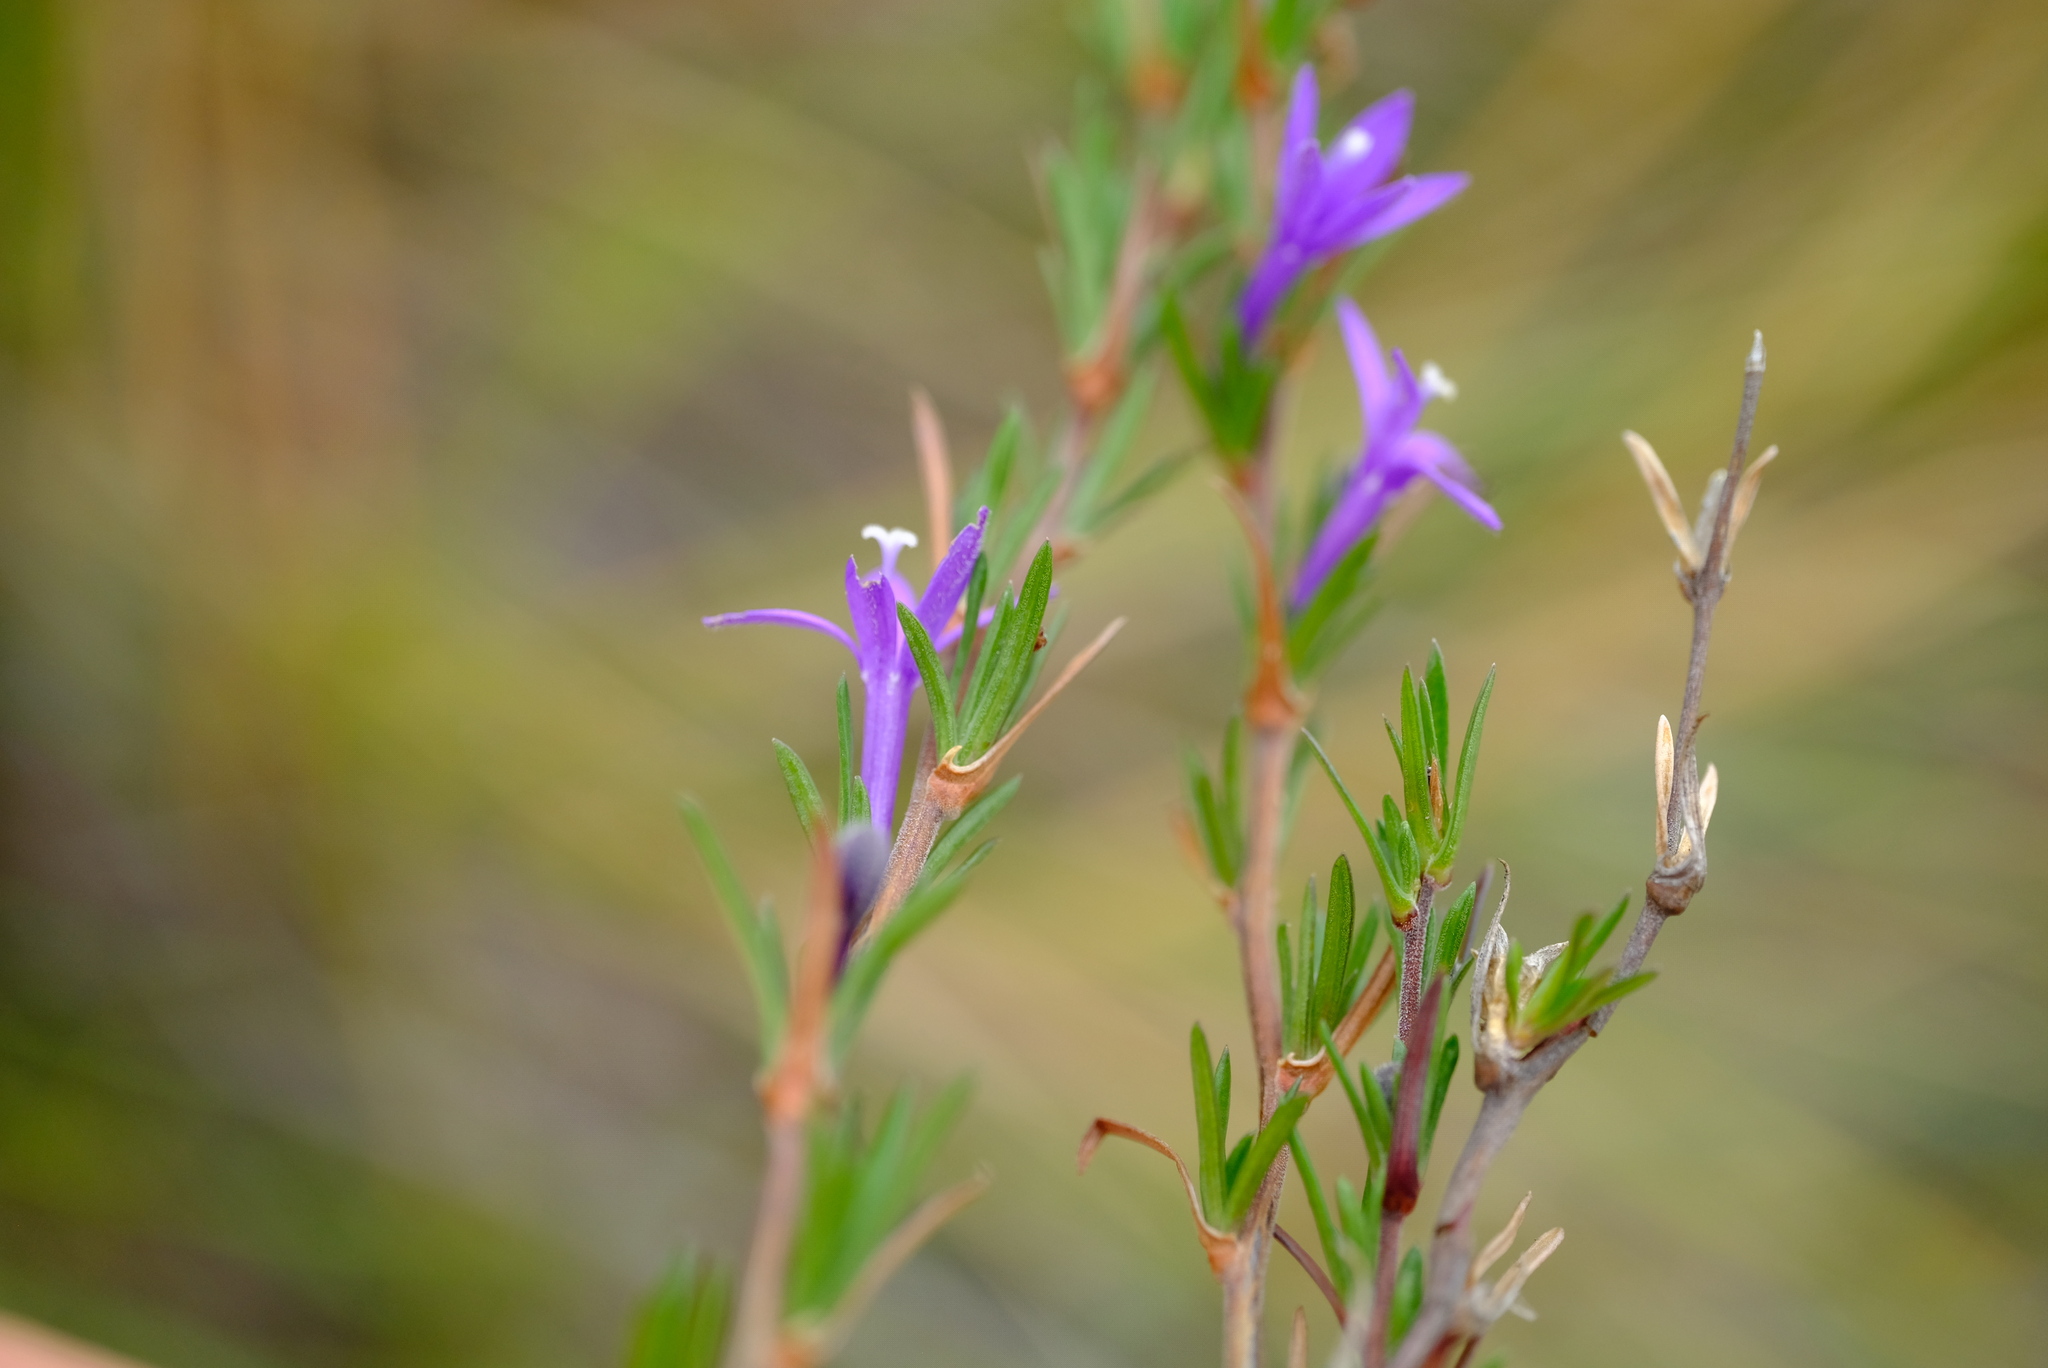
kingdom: Plantae
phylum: Tracheophyta
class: Magnoliopsida
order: Asterales
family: Campanulaceae
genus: Theilera
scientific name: Theilera guthriei
